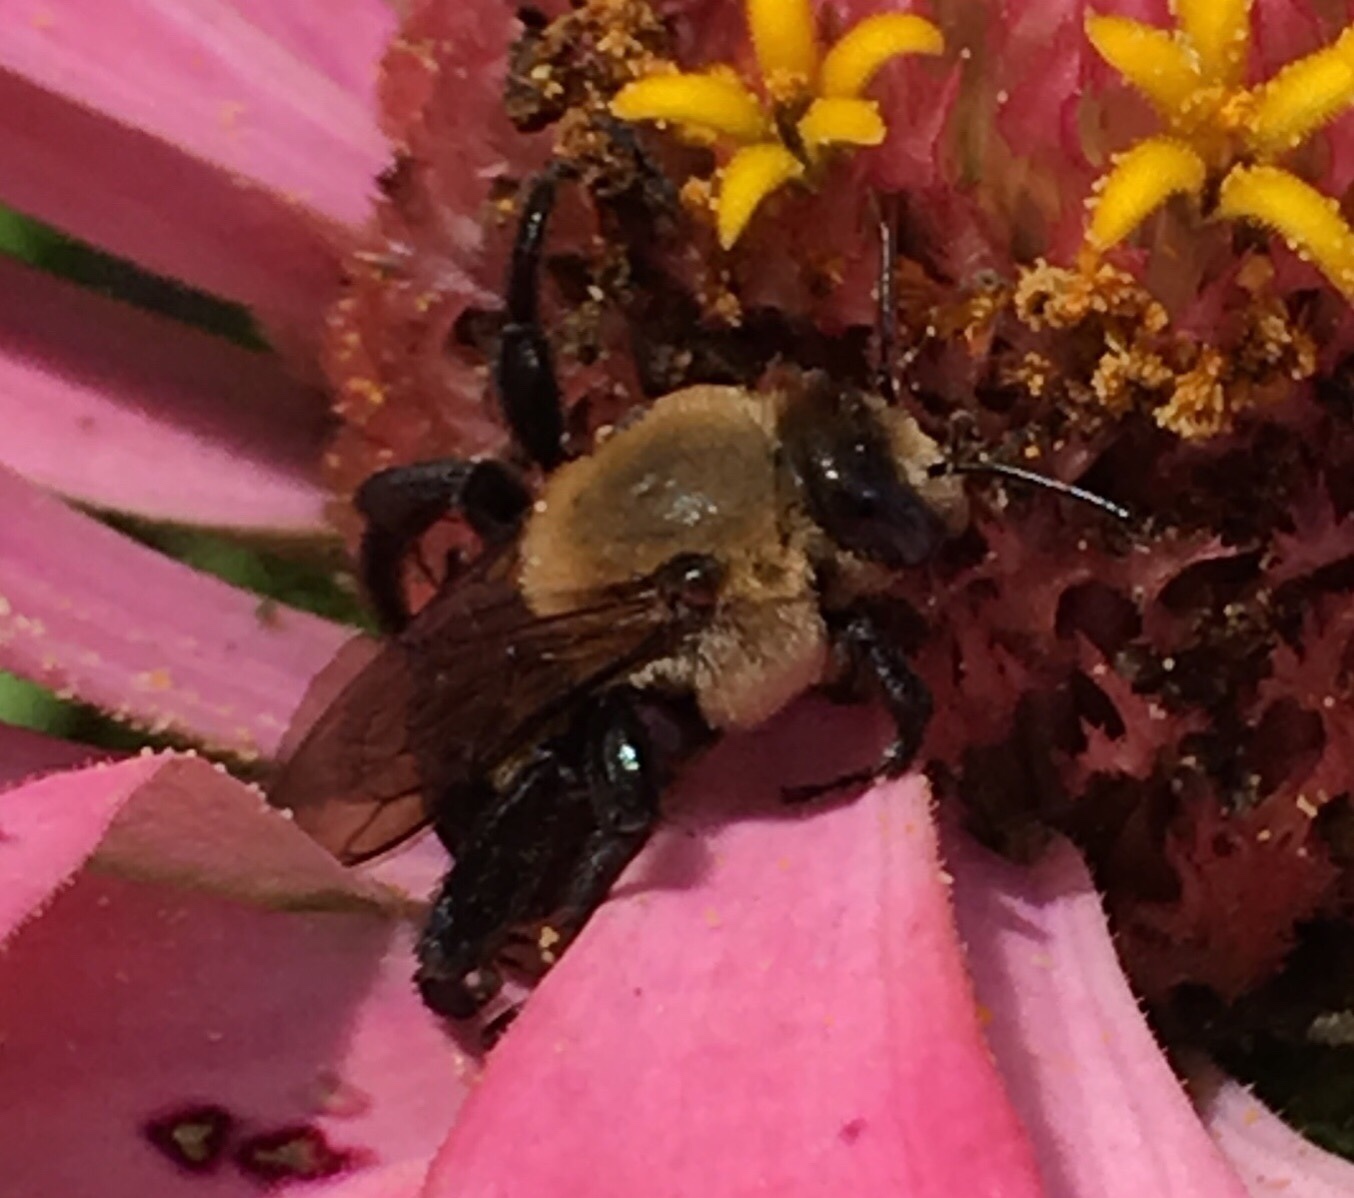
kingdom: Animalia
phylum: Arthropoda
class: Insecta
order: Hymenoptera
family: Apidae
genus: Ptilothrix
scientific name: Ptilothrix bombiformis
